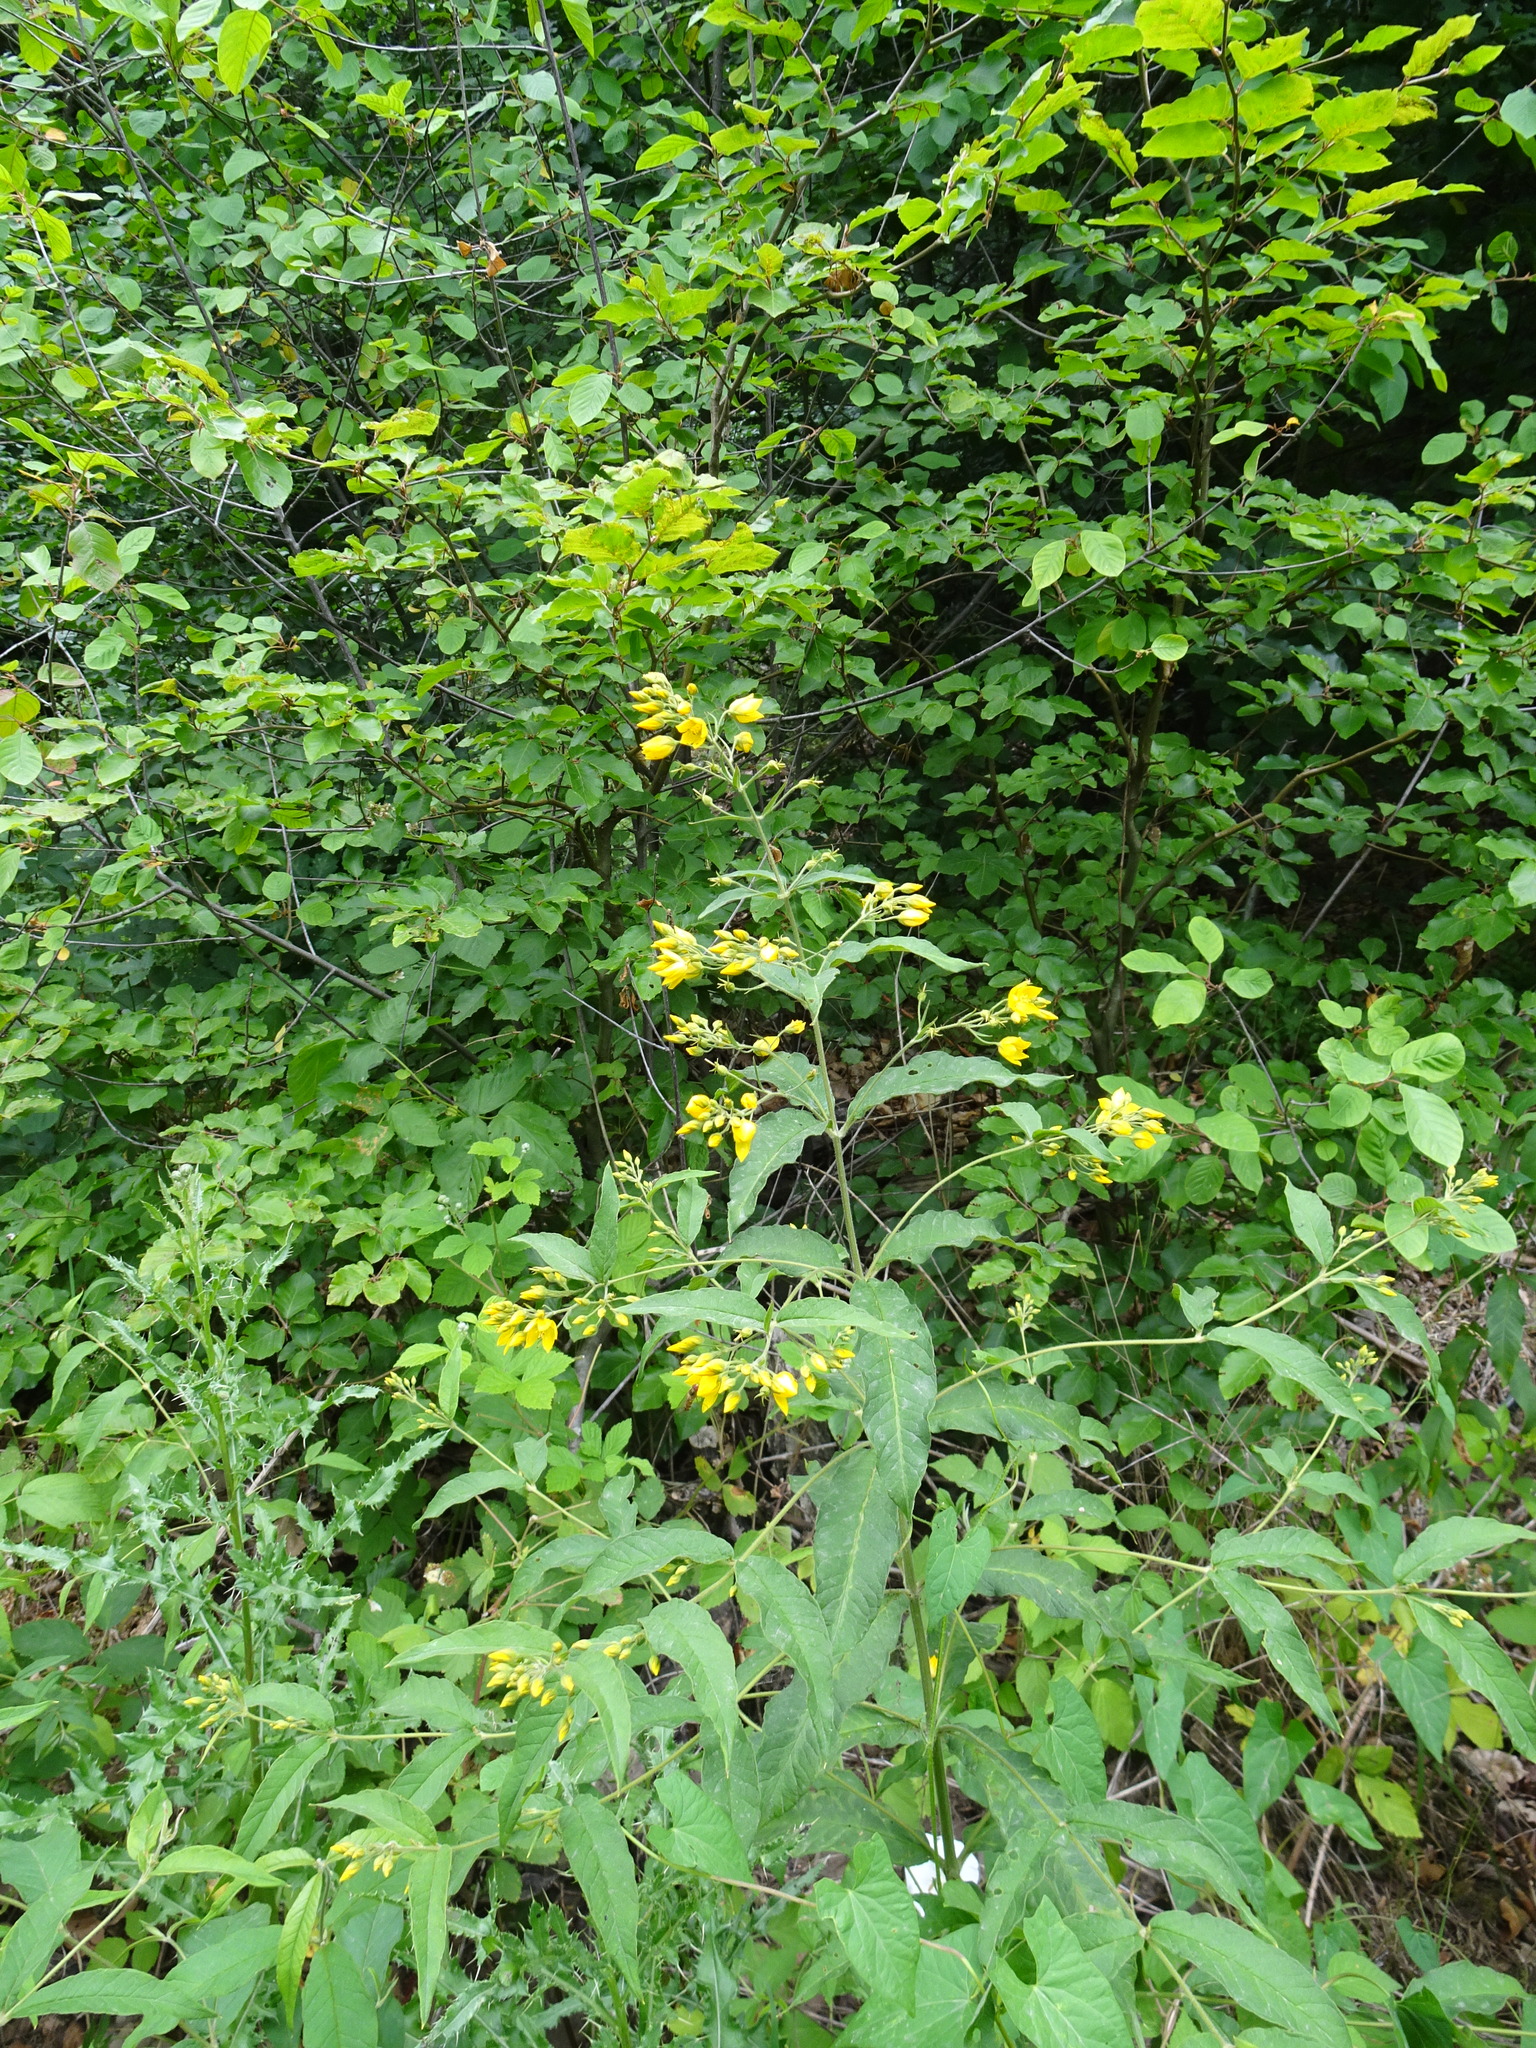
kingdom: Plantae
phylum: Tracheophyta
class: Magnoliopsida
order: Ericales
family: Primulaceae
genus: Lysimachia
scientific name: Lysimachia vulgaris
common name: Yellow loosestrife
